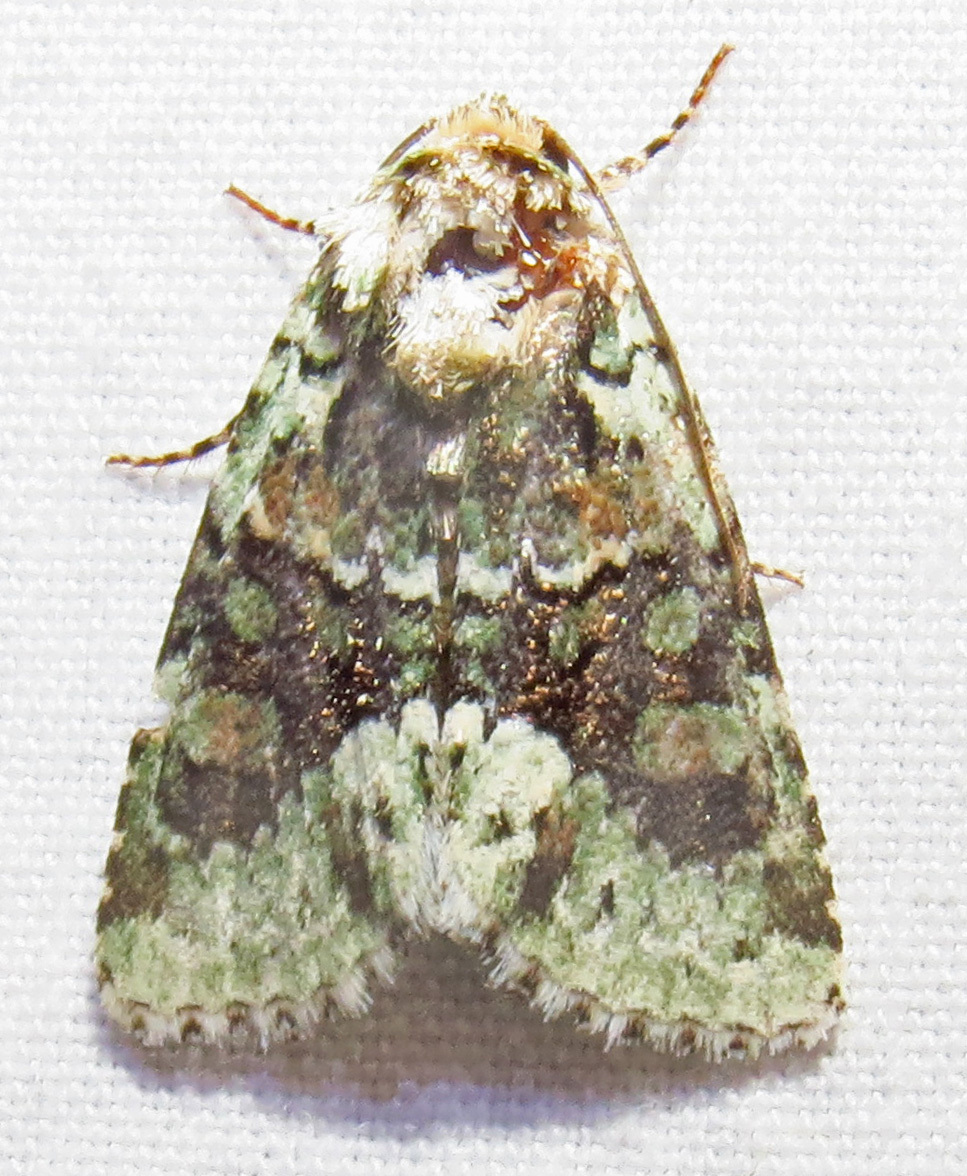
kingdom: Animalia
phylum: Arthropoda
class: Insecta
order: Lepidoptera
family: Noctuidae
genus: Lacinipolia
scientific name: Lacinipolia explicata
